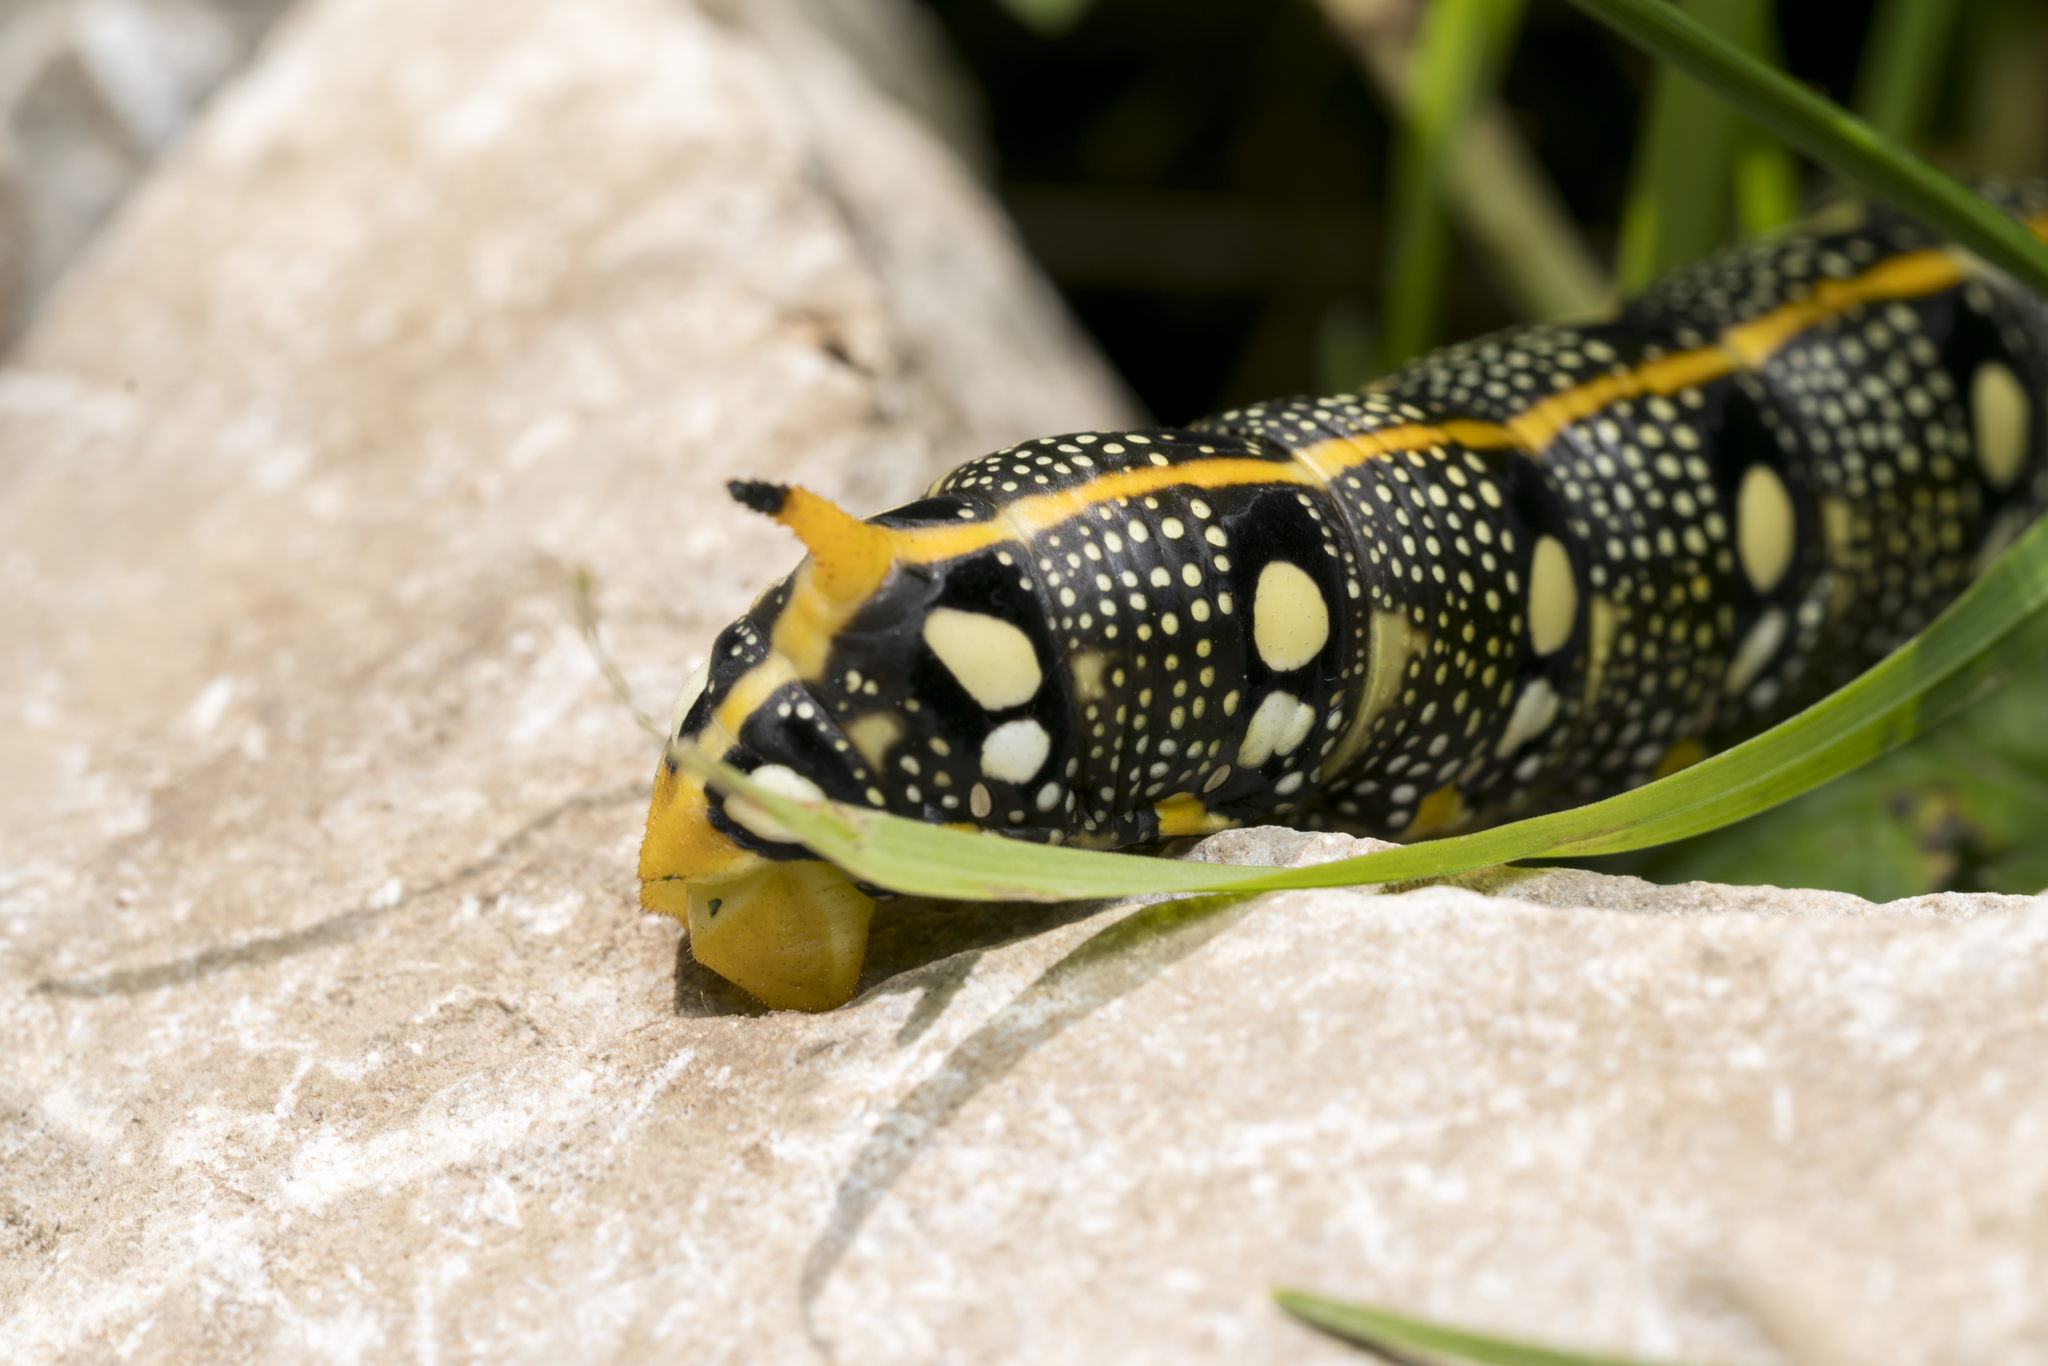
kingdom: Animalia
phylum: Arthropoda
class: Insecta
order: Lepidoptera
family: Sphingidae
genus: Hyles
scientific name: Hyles euphorbiae
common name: Spurge hawk-moth
